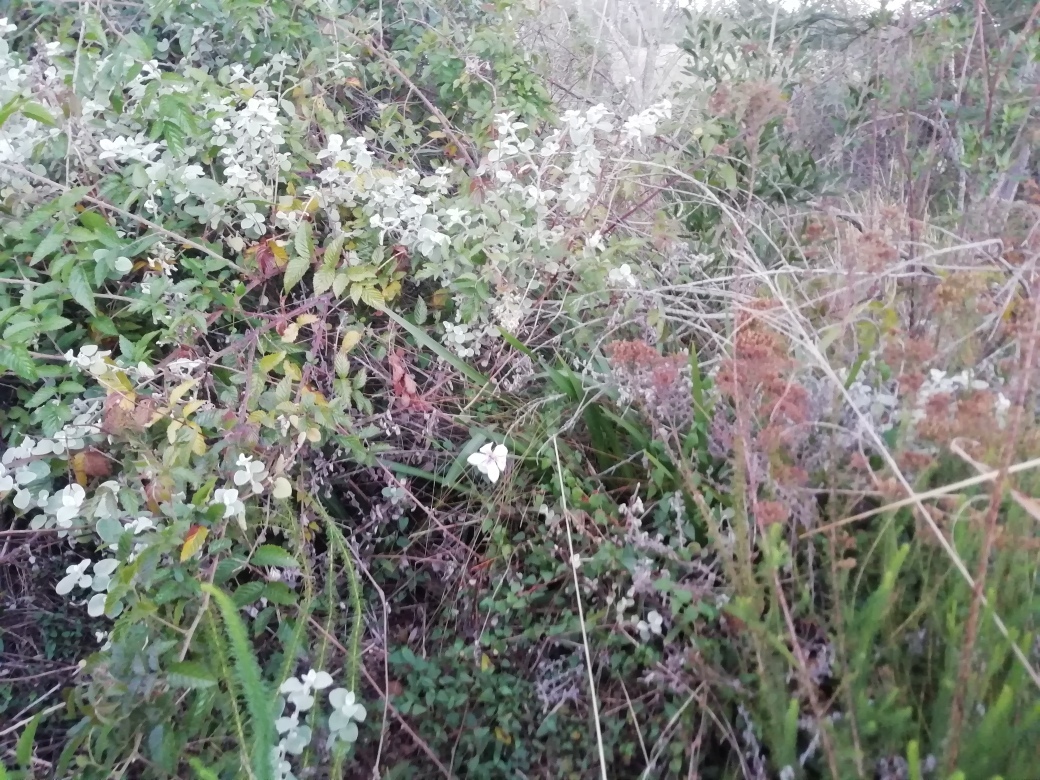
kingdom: Plantae
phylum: Tracheophyta
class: Liliopsida
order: Asparagales
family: Iridaceae
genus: Dietes
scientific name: Dietes iridioides
